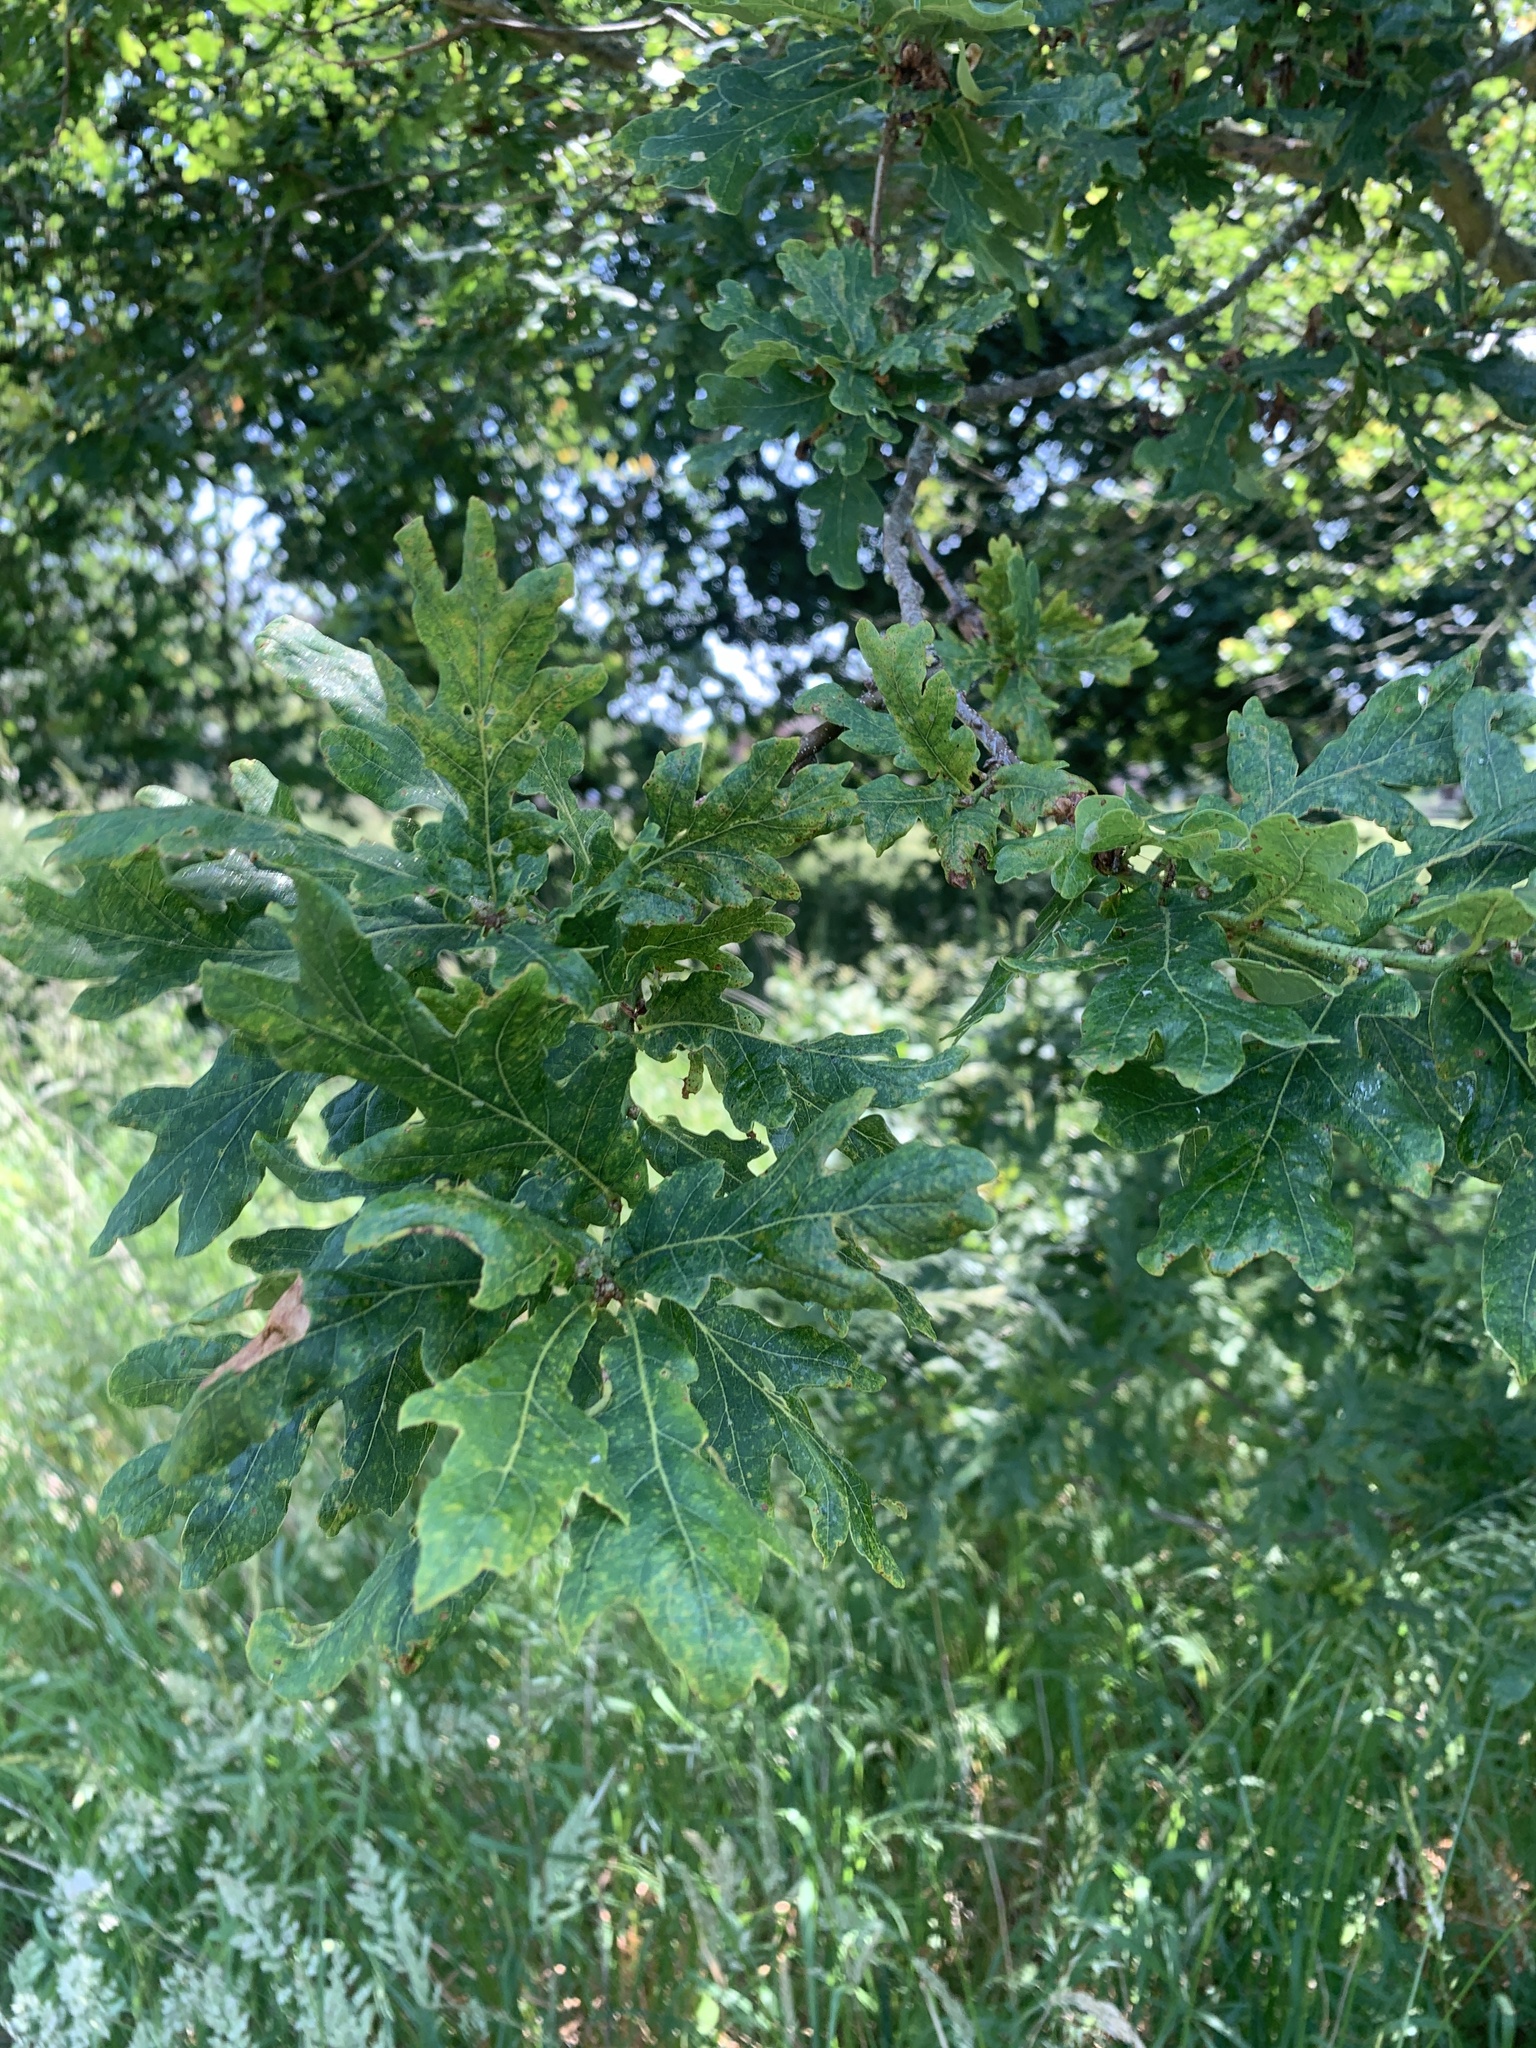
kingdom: Plantae
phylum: Tracheophyta
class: Magnoliopsida
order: Fagales
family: Fagaceae
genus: Quercus
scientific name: Quercus robur
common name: Pedunculate oak
